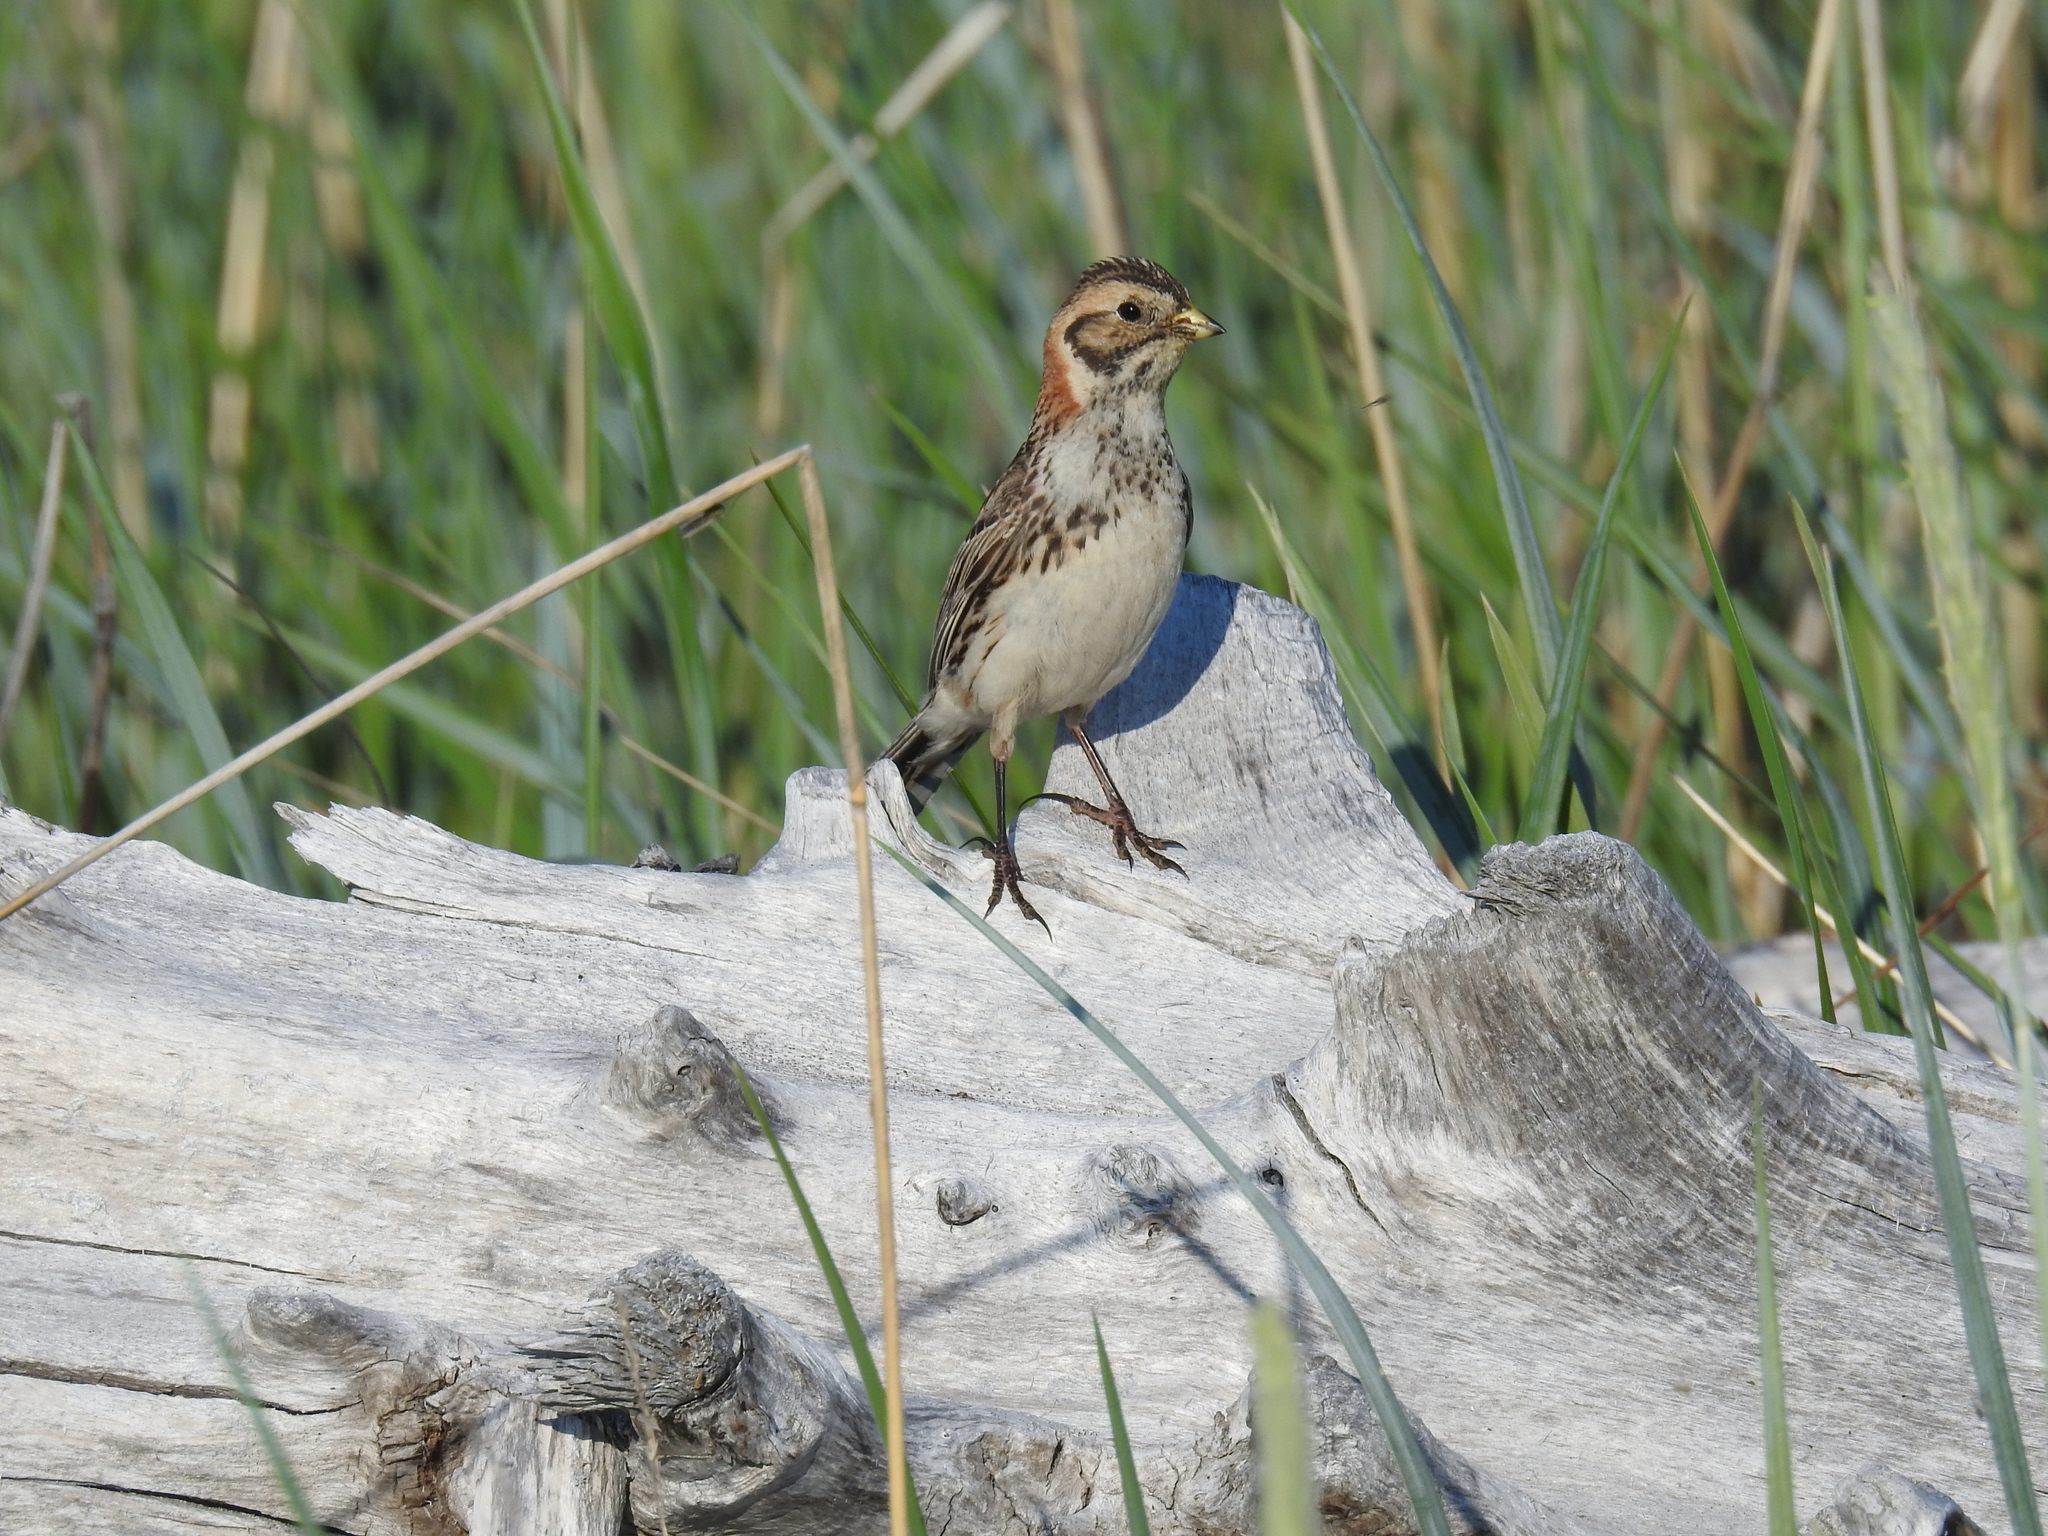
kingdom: Animalia
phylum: Chordata
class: Aves
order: Passeriformes
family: Calcariidae
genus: Calcarius
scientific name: Calcarius lapponicus
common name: Lapland longspur
